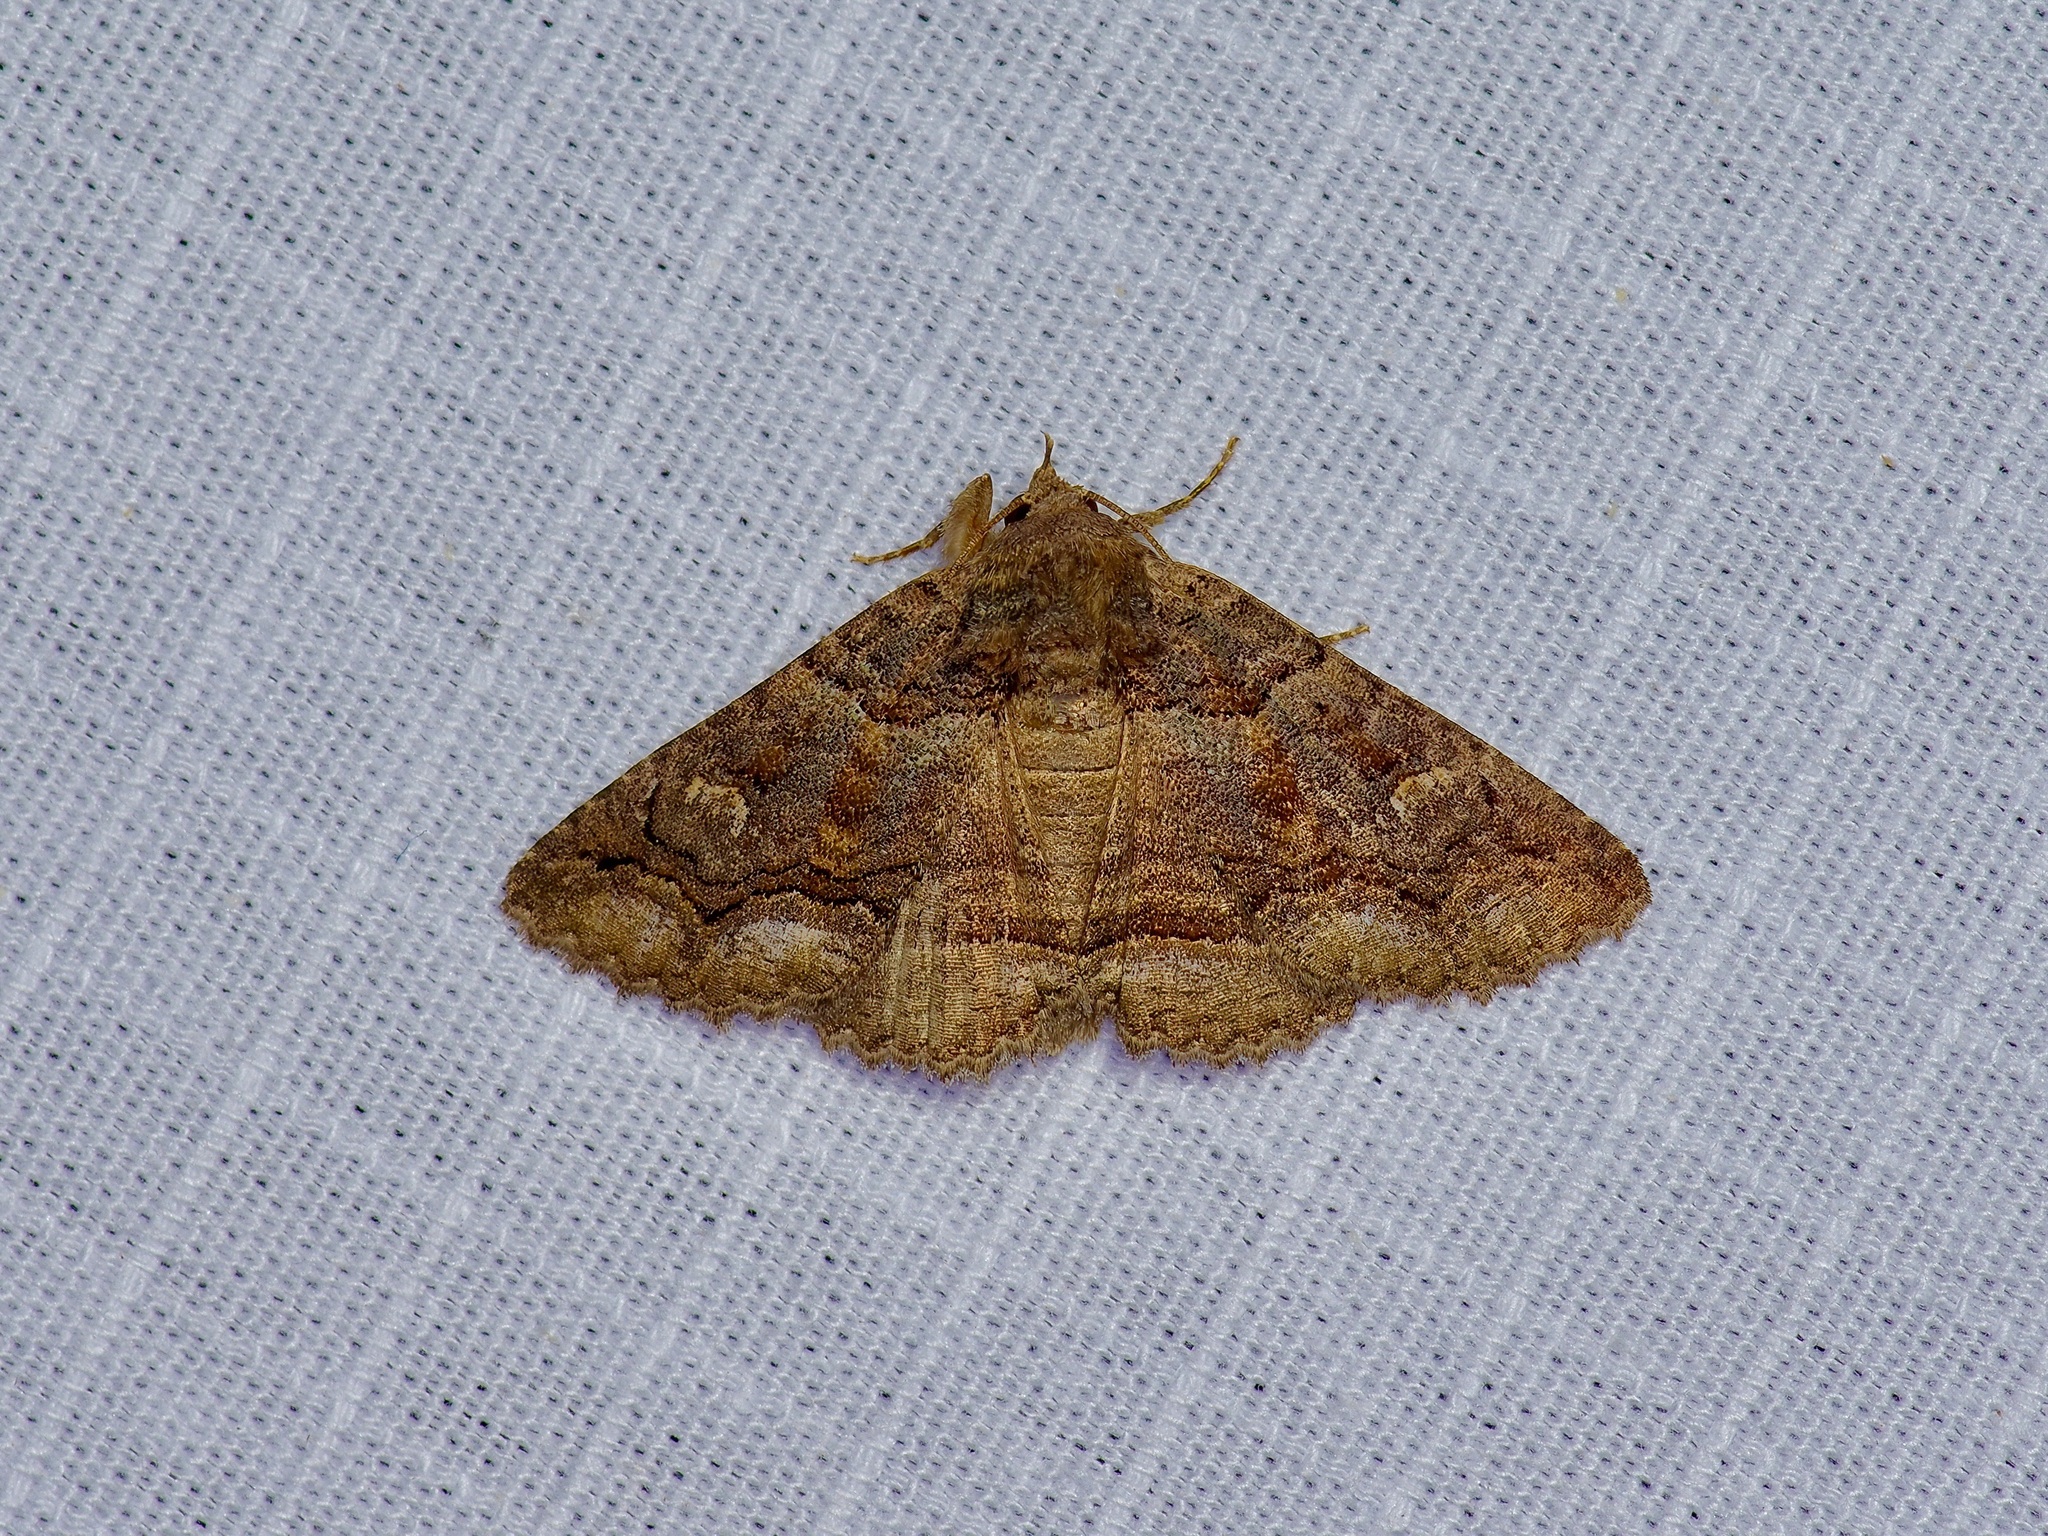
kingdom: Animalia
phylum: Arthropoda
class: Insecta
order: Lepidoptera
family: Erebidae
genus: Zale
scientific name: Zale edusina
